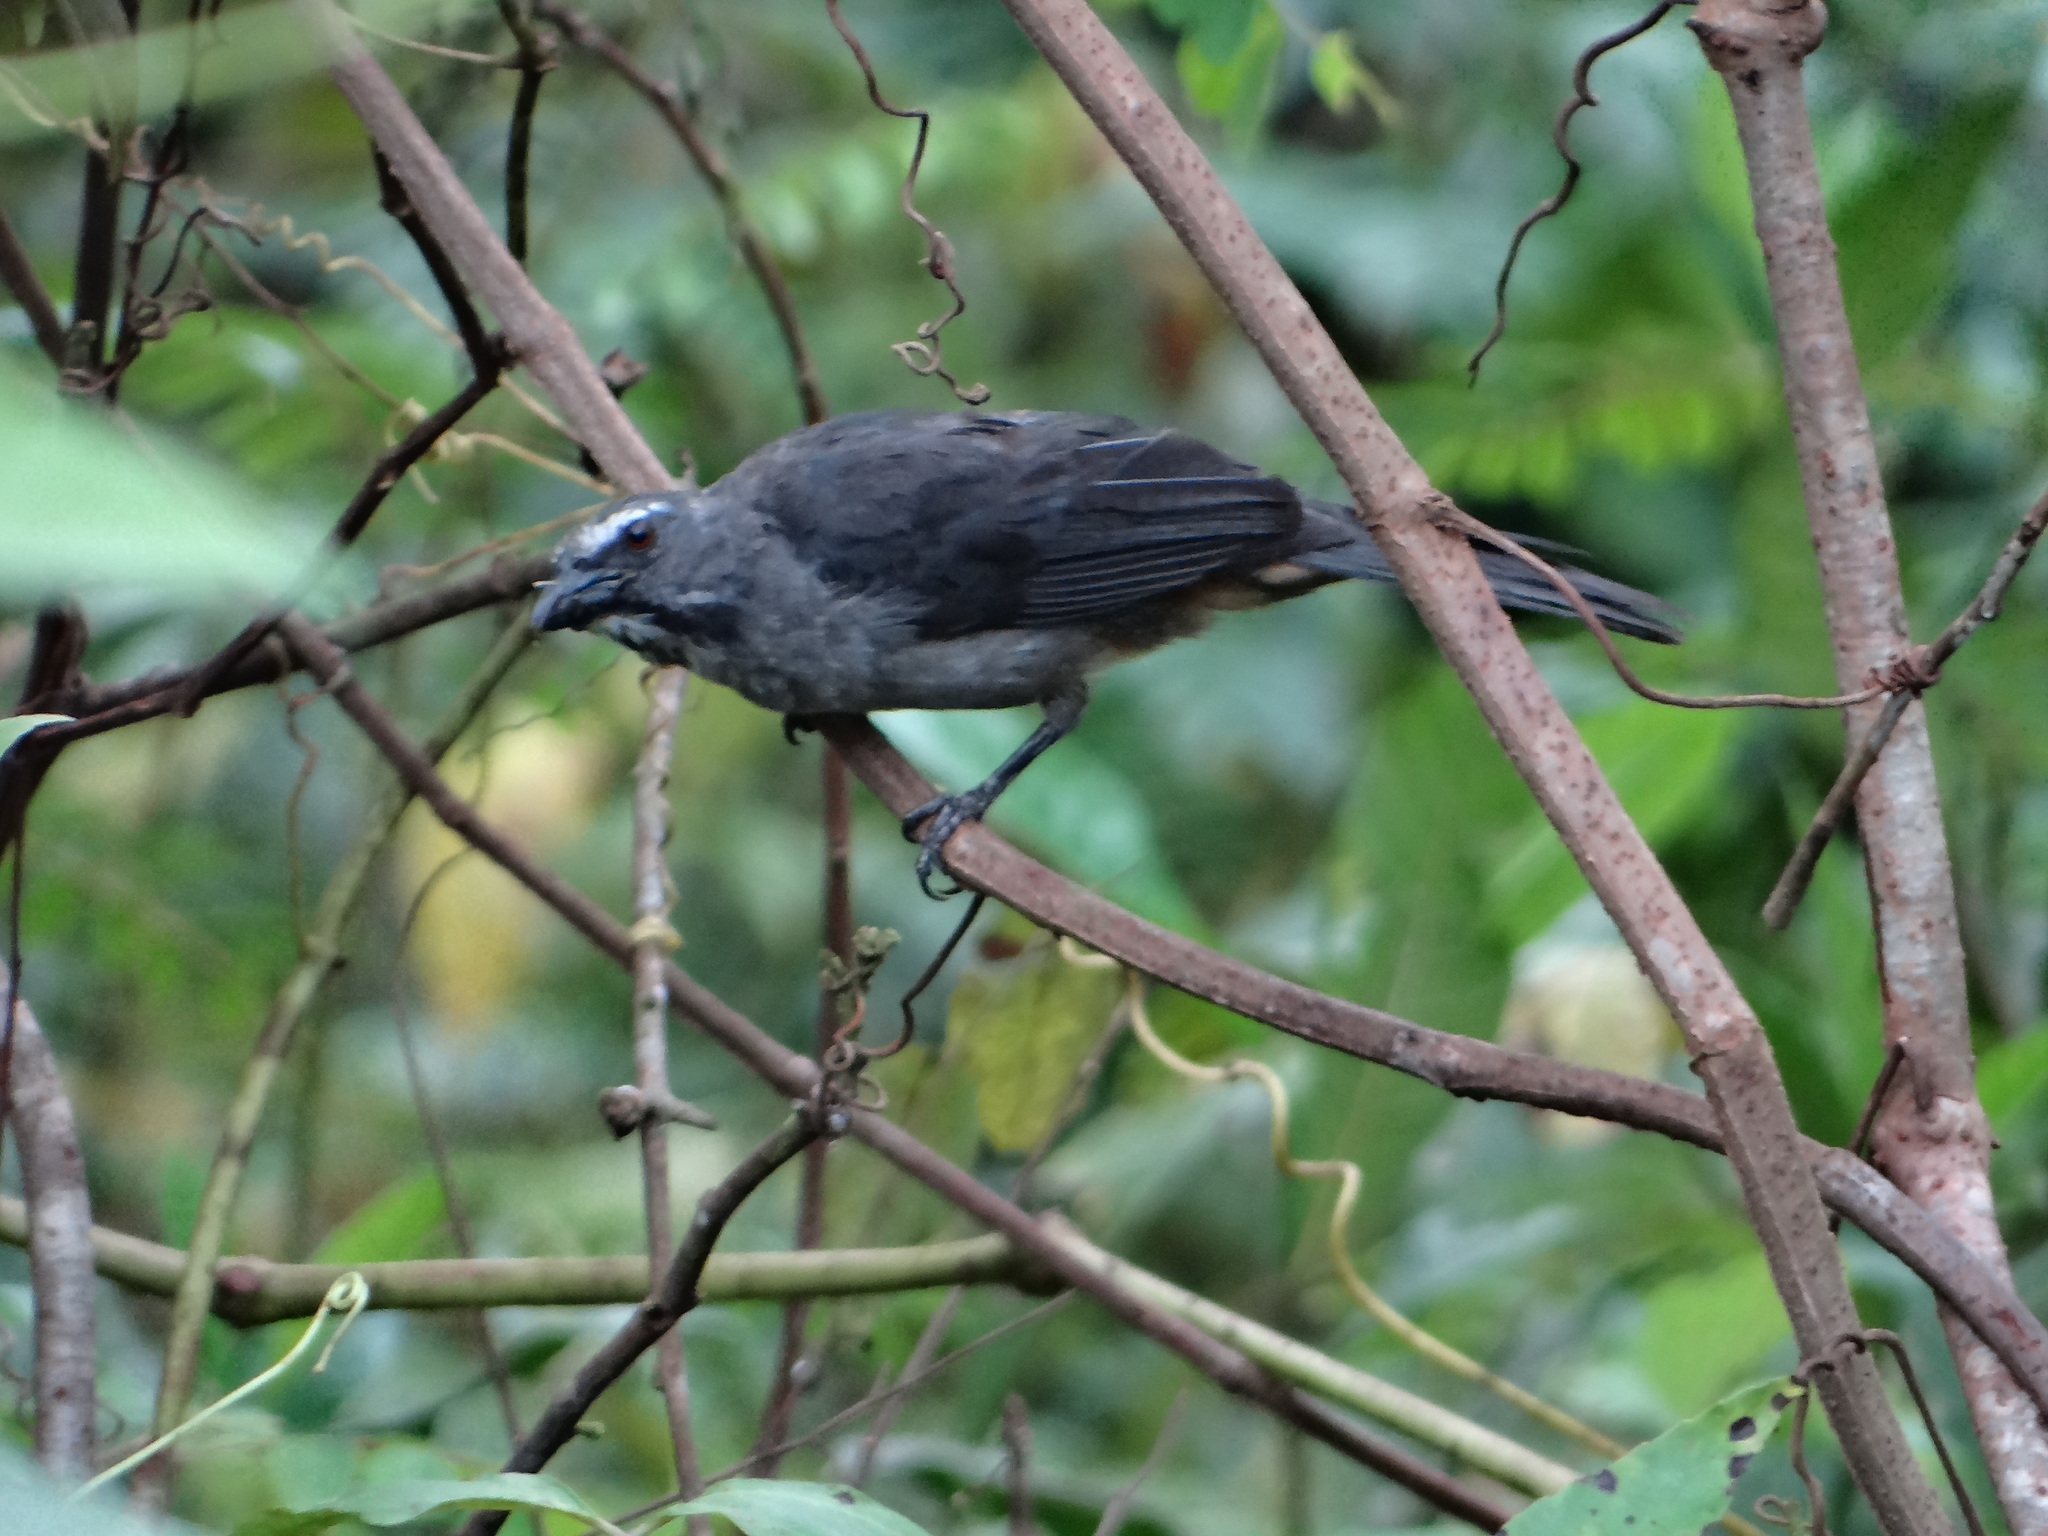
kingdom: Animalia
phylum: Chordata
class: Aves
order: Passeriformes
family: Thraupidae
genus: Saltator
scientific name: Saltator coerulescens
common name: Grayish saltator
